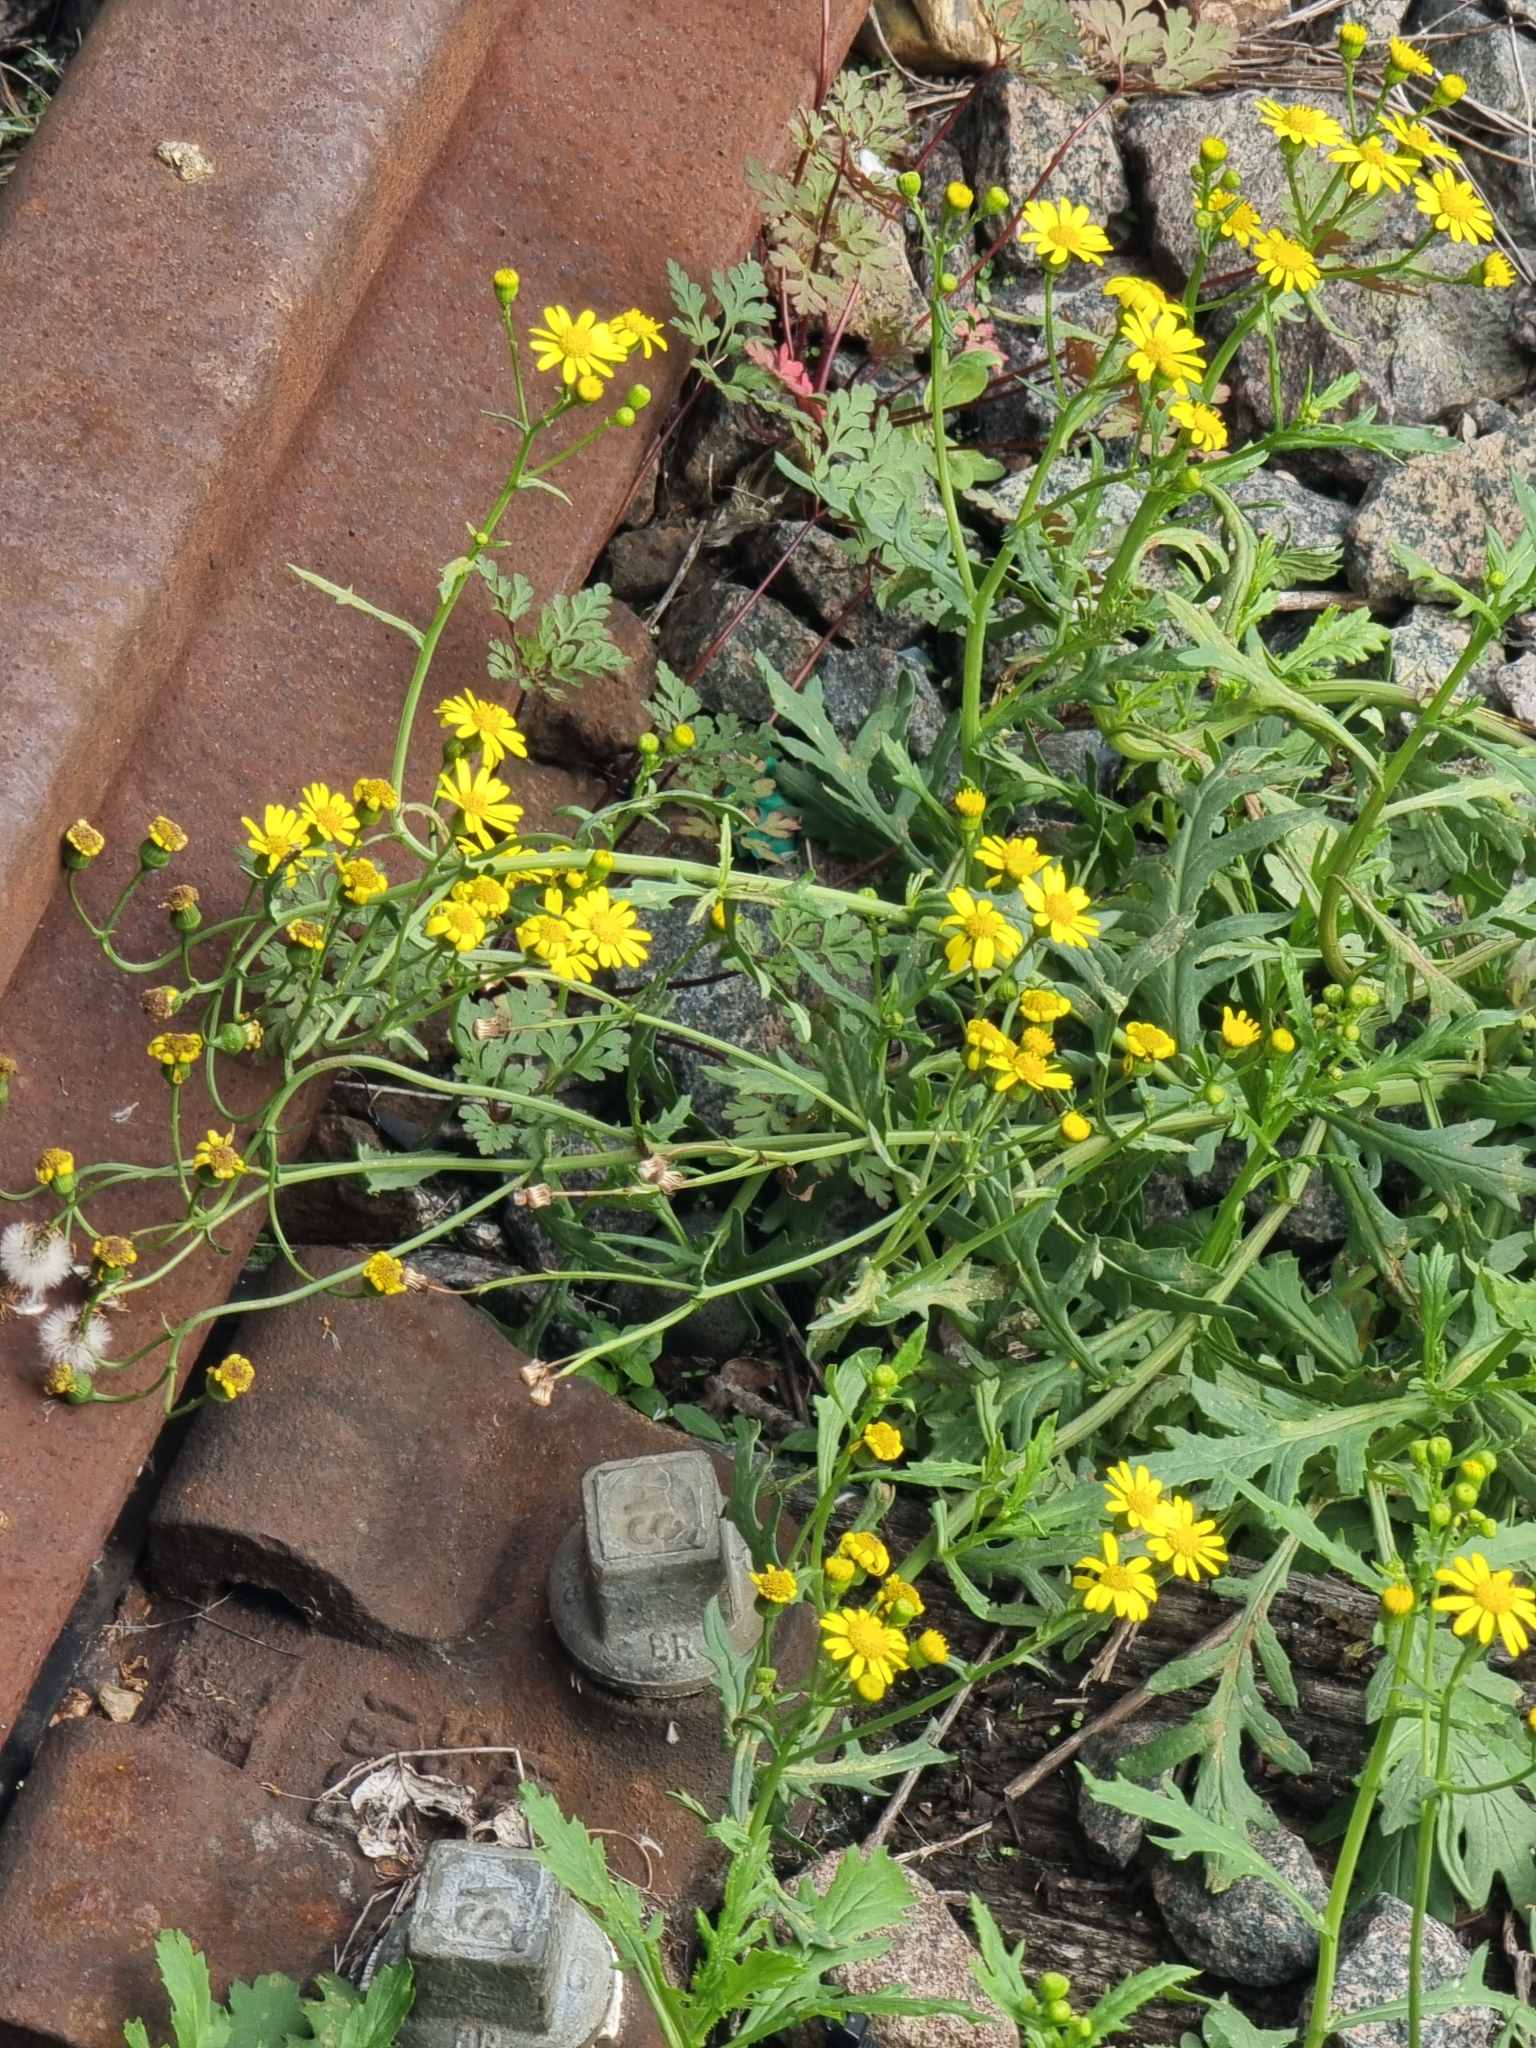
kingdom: Plantae
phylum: Tracheophyta
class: Magnoliopsida
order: Asterales
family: Asteraceae
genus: Senecio
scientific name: Senecio squalidus
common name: Oxford ragwort
